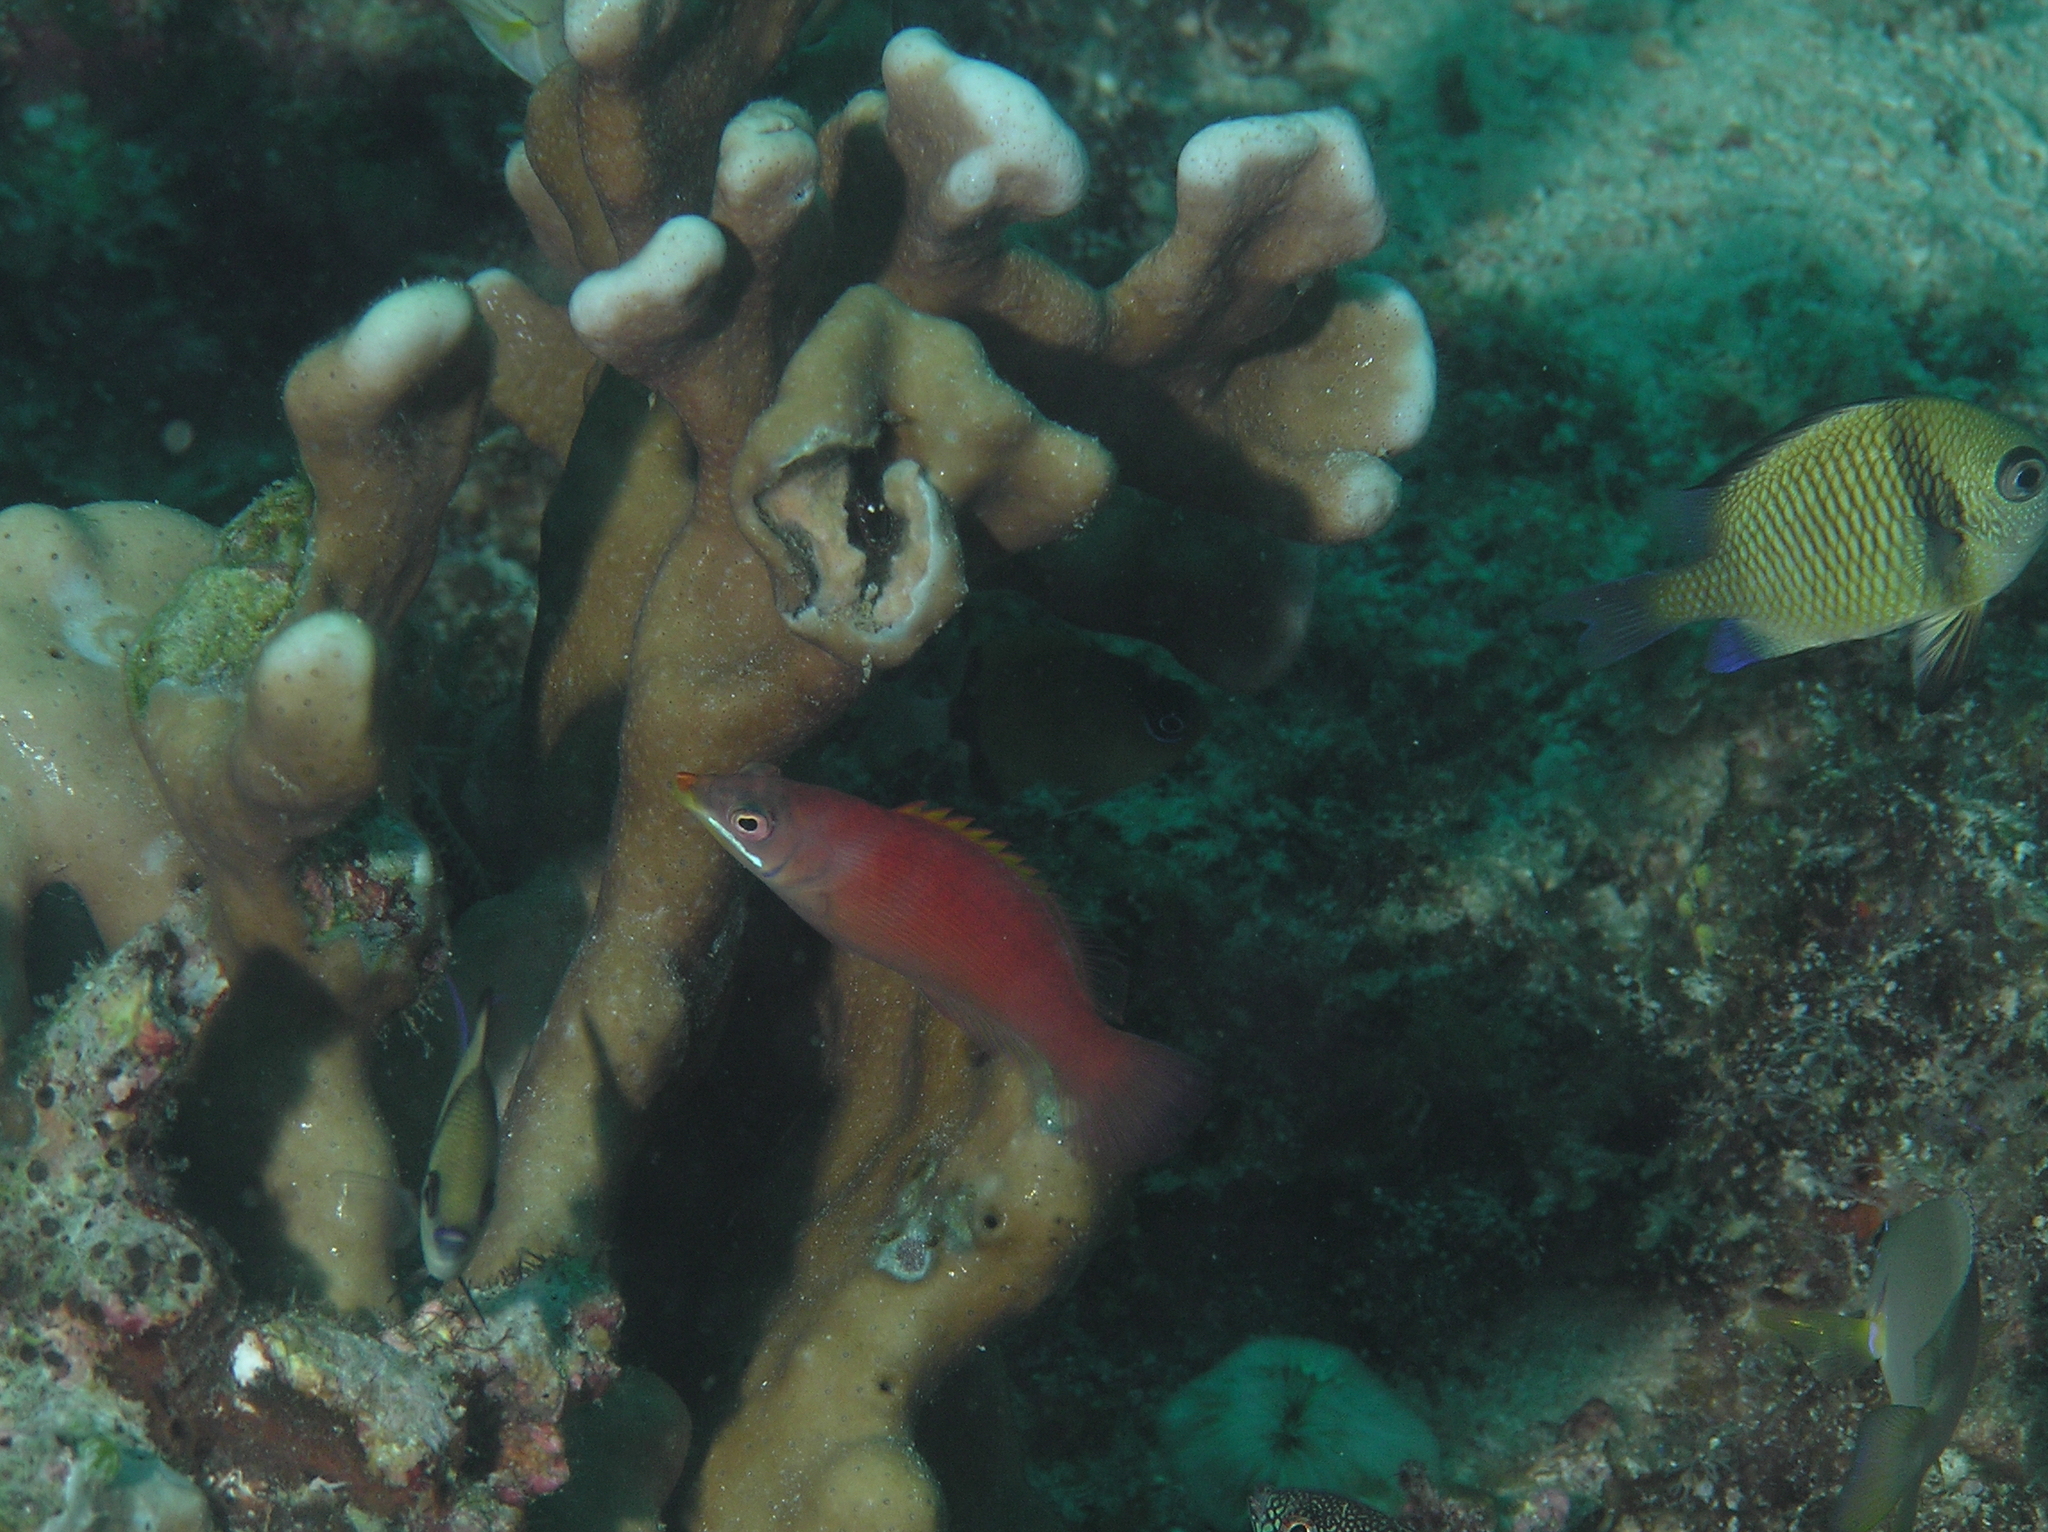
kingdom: Animalia
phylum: Chordata
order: Perciformes
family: Labridae
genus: Pseudocheilinus
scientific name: Pseudocheilinus evanidus
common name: Disappearing wrasse
